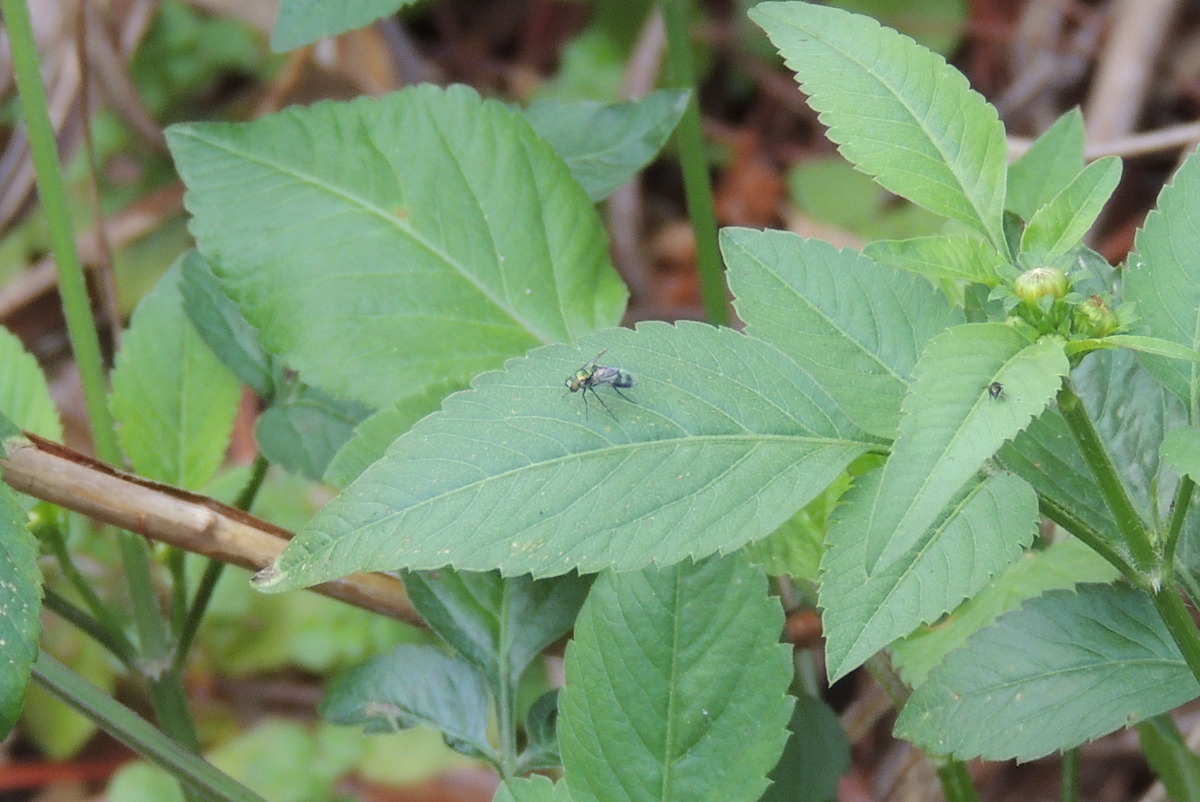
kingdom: Animalia
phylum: Arthropoda
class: Insecta
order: Diptera
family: Dolichopodidae
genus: Condylostylus
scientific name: Condylostylus patibulatus
